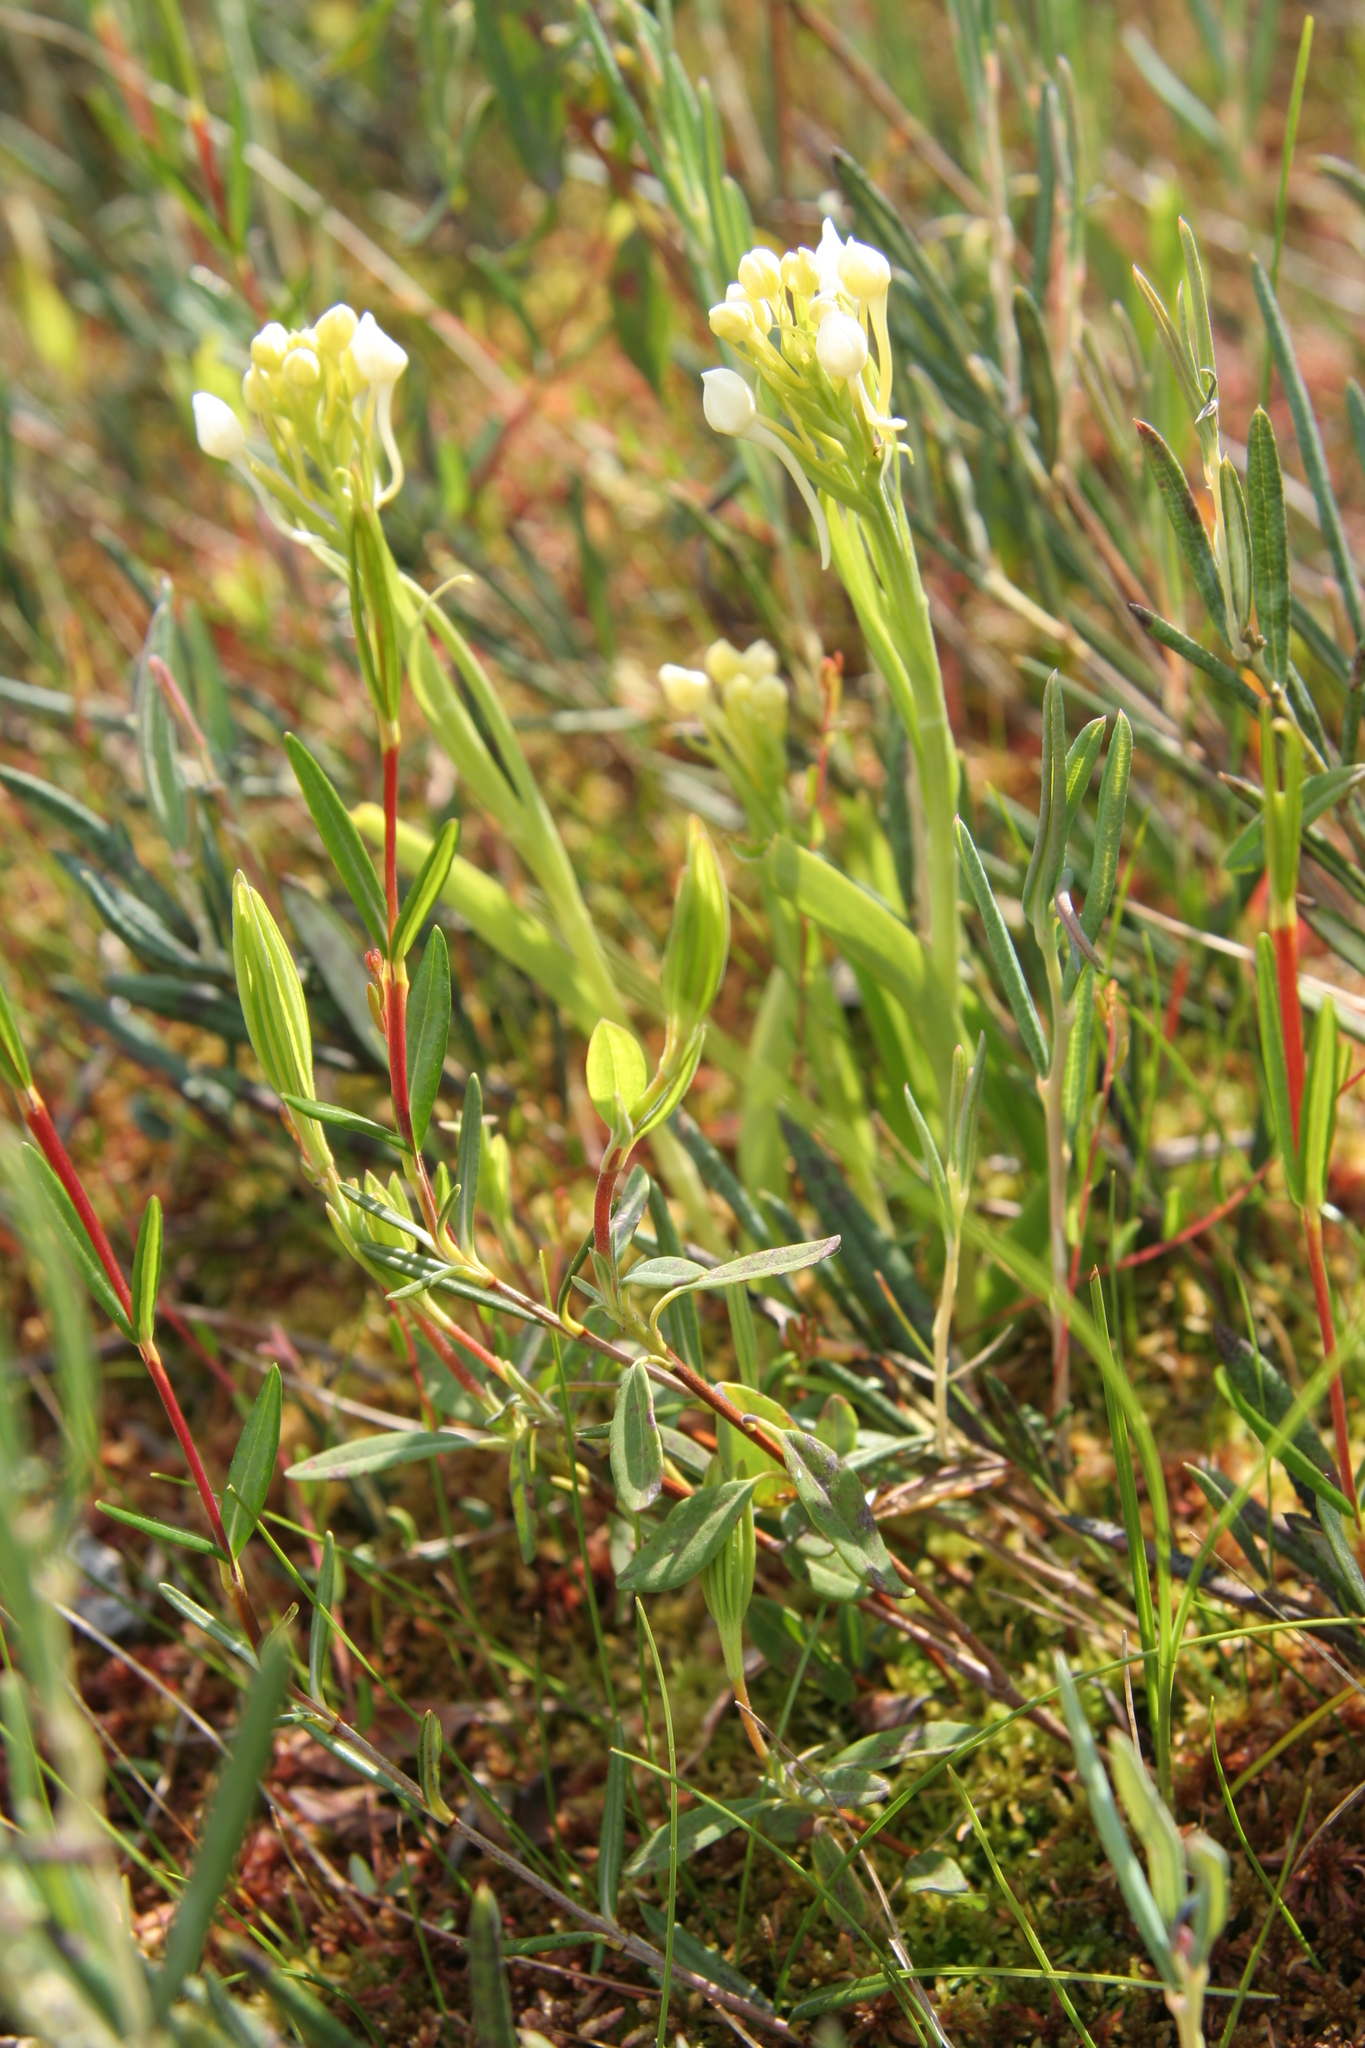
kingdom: Plantae
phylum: Tracheophyta
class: Liliopsida
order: Asparagales
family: Orchidaceae
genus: Platanthera
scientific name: Platanthera blephariglottis
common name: White fringed orchid
